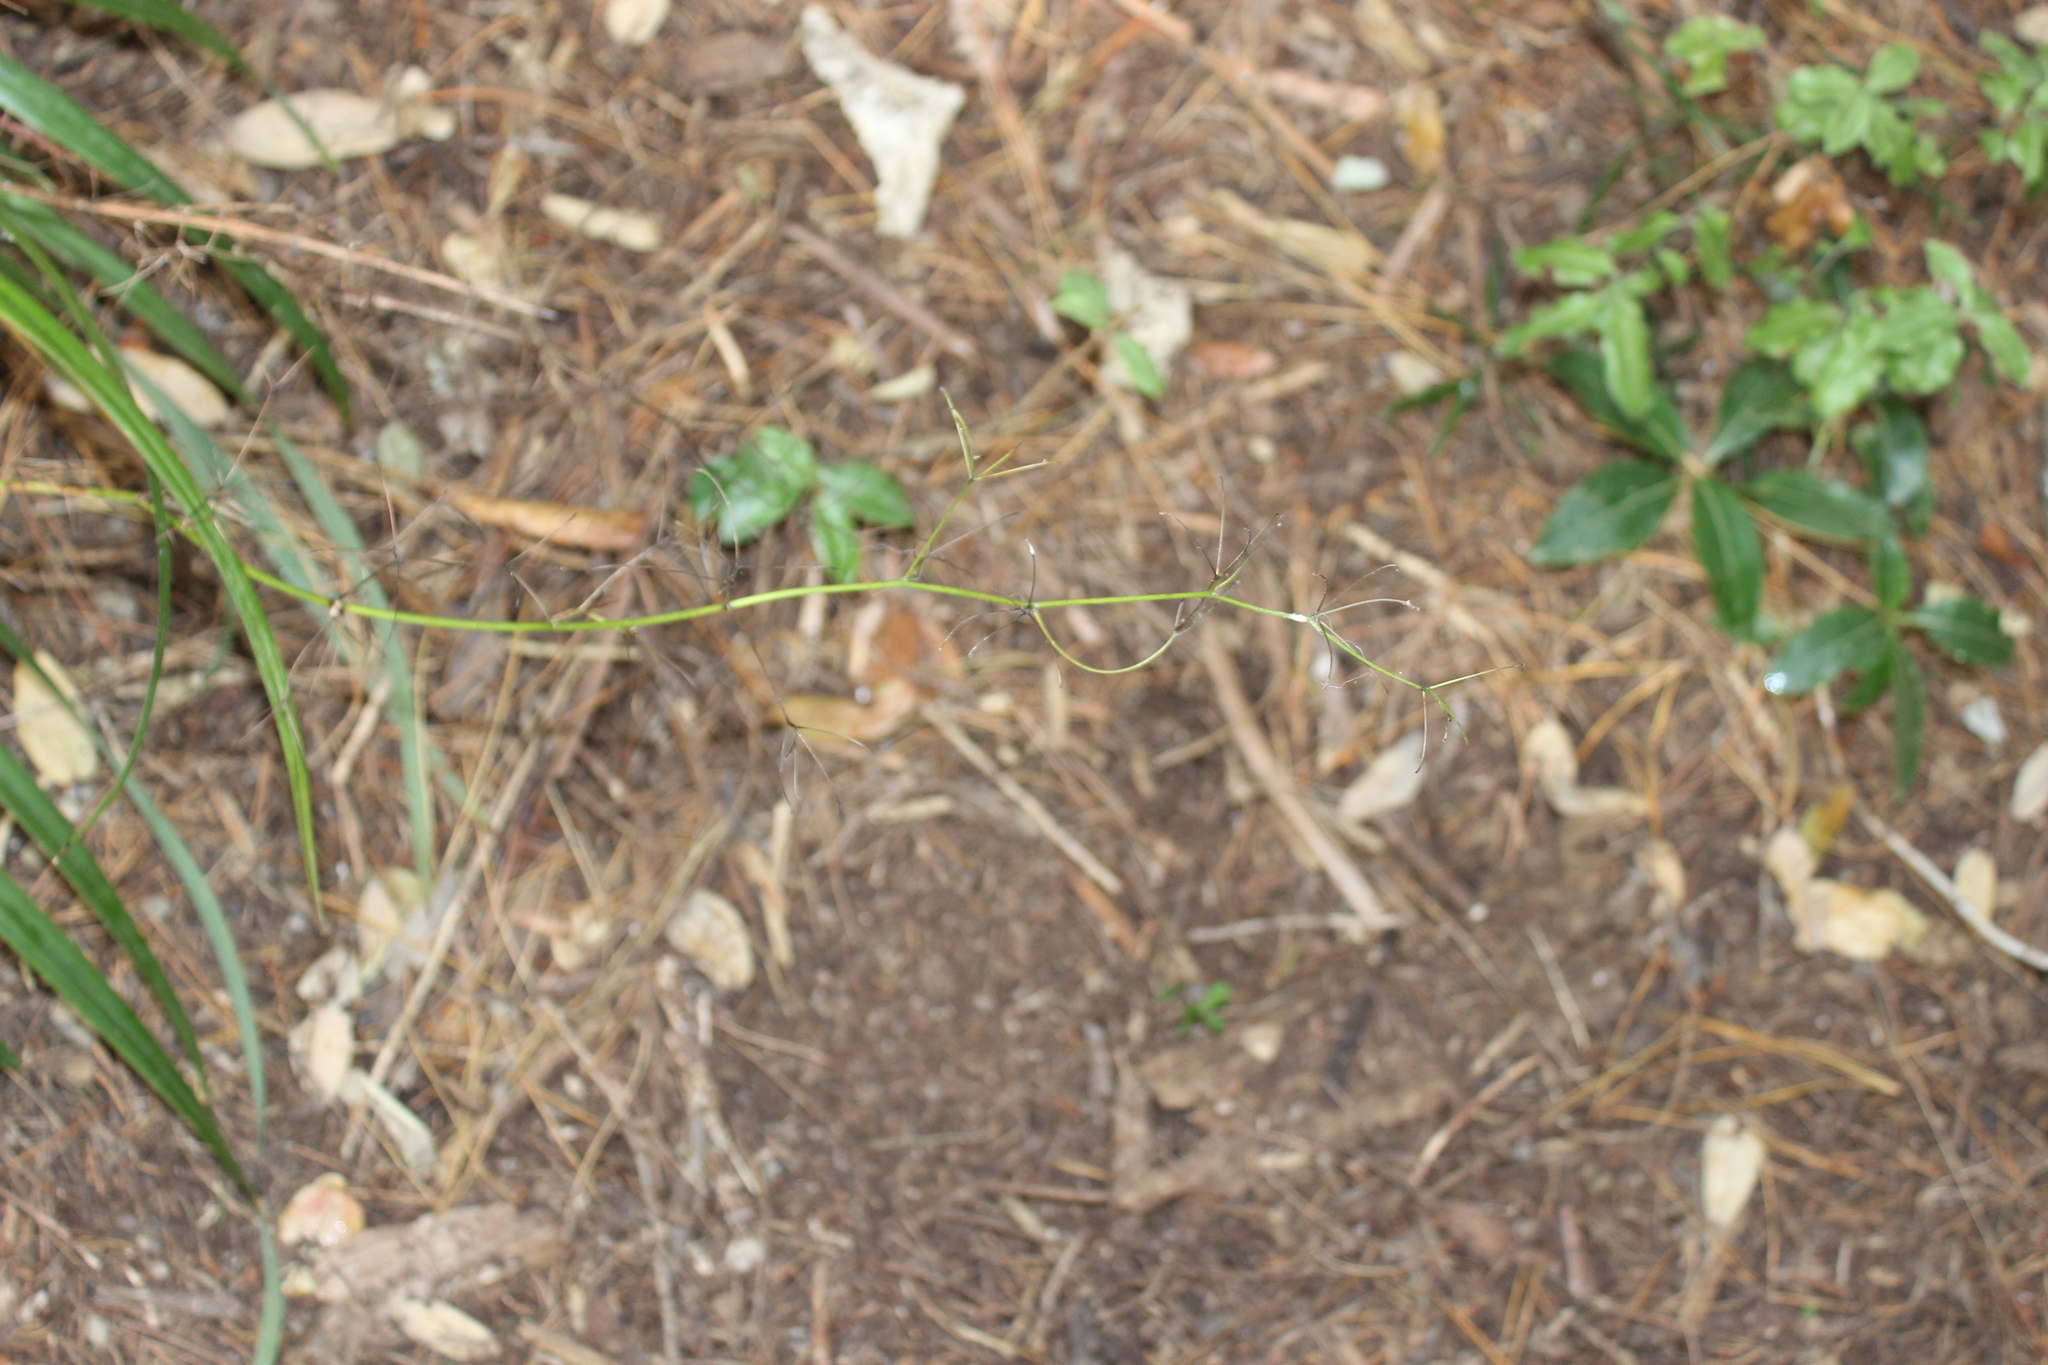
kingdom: Plantae
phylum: Tracheophyta
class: Liliopsida
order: Asparagales
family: Asphodelaceae
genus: Dianella
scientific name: Dianella nigra
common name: New zealand-blueberry
